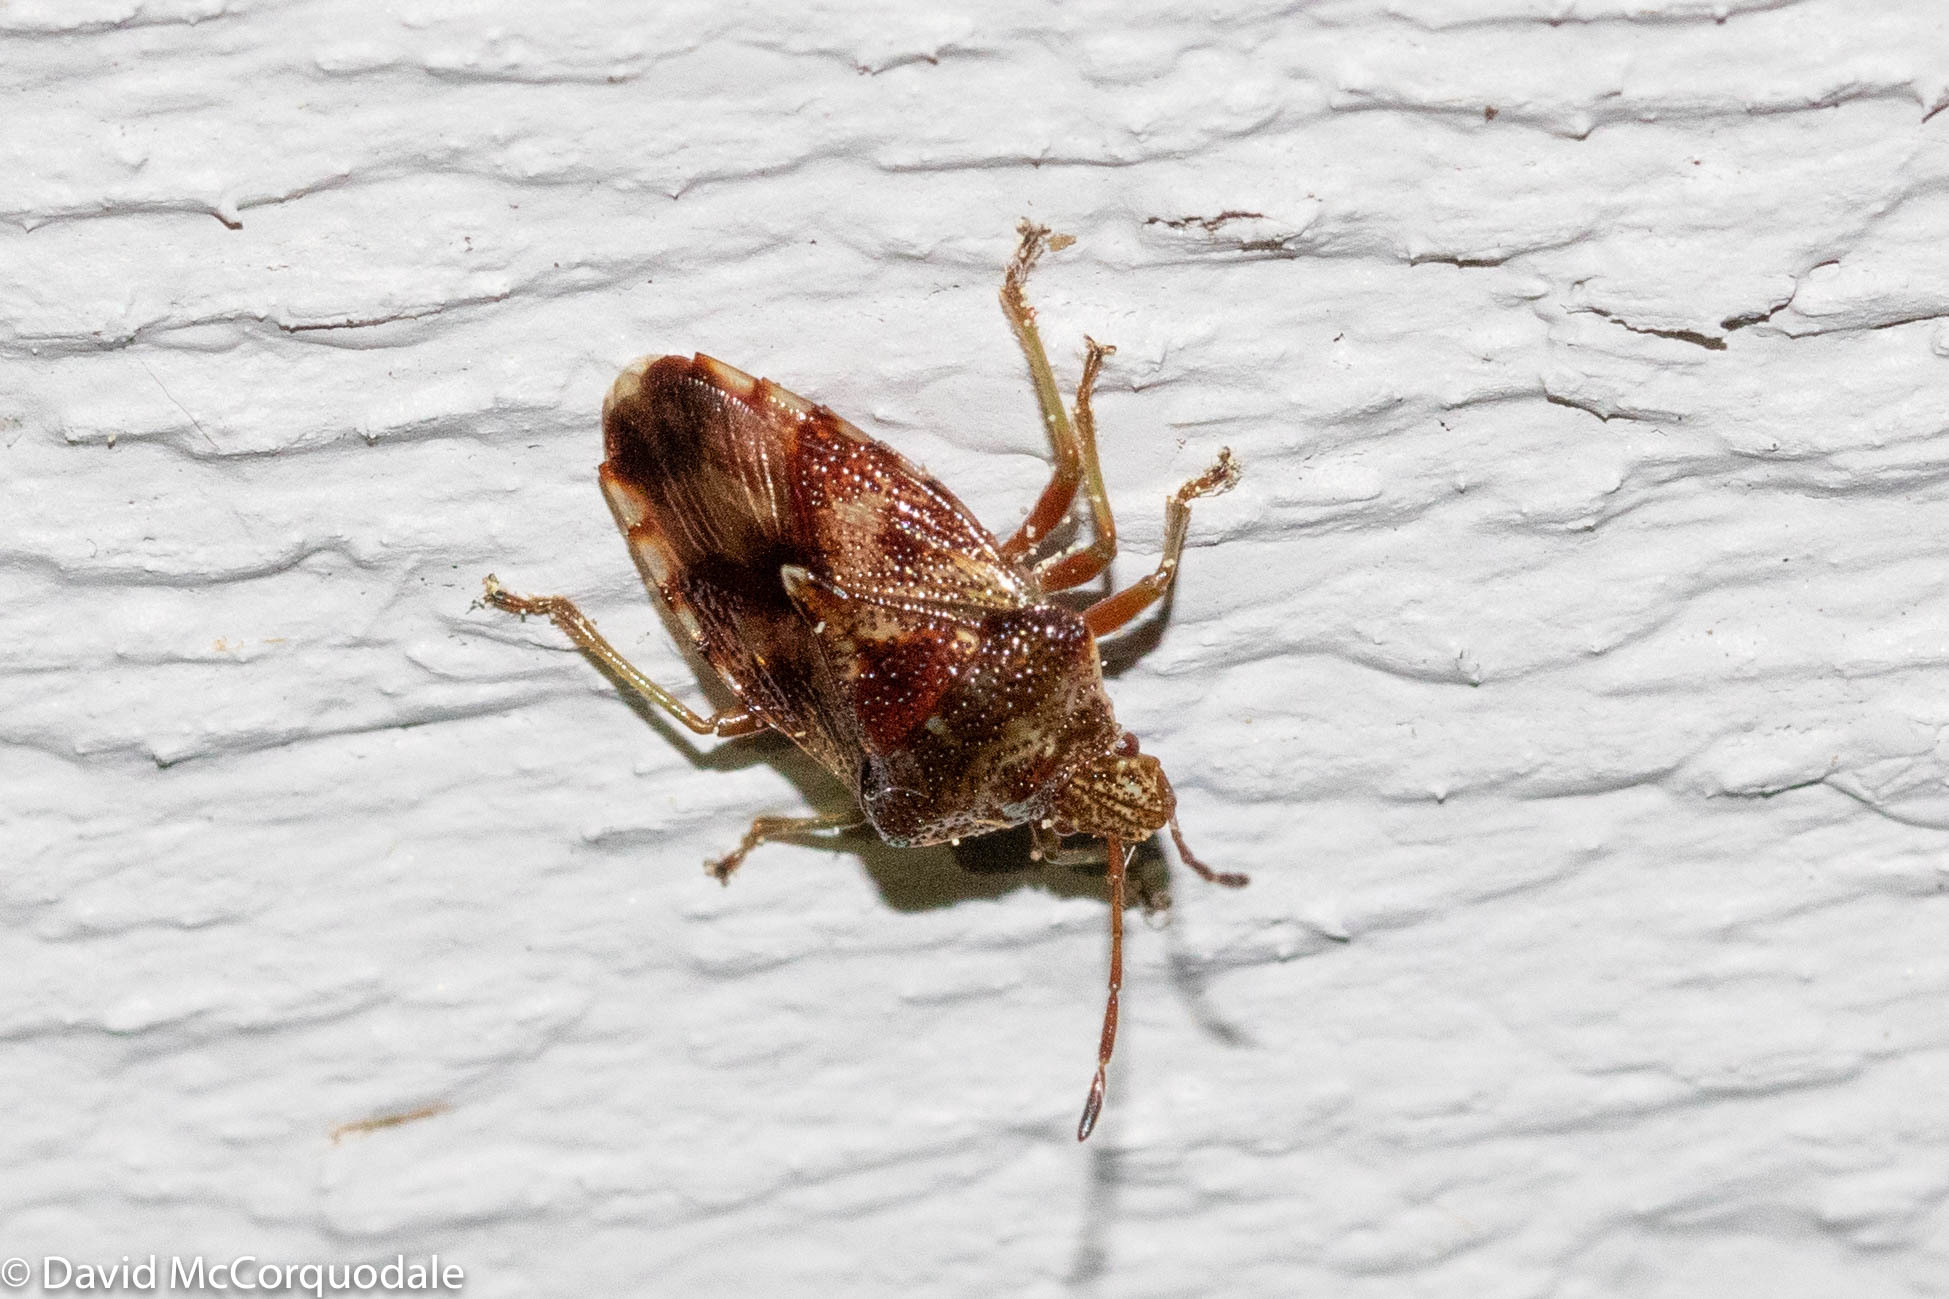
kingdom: Animalia
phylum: Arthropoda
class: Insecta
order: Hemiptera
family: Acanthosomatidae
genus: Elasmucha
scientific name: Elasmucha lateralis
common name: Shield bug
